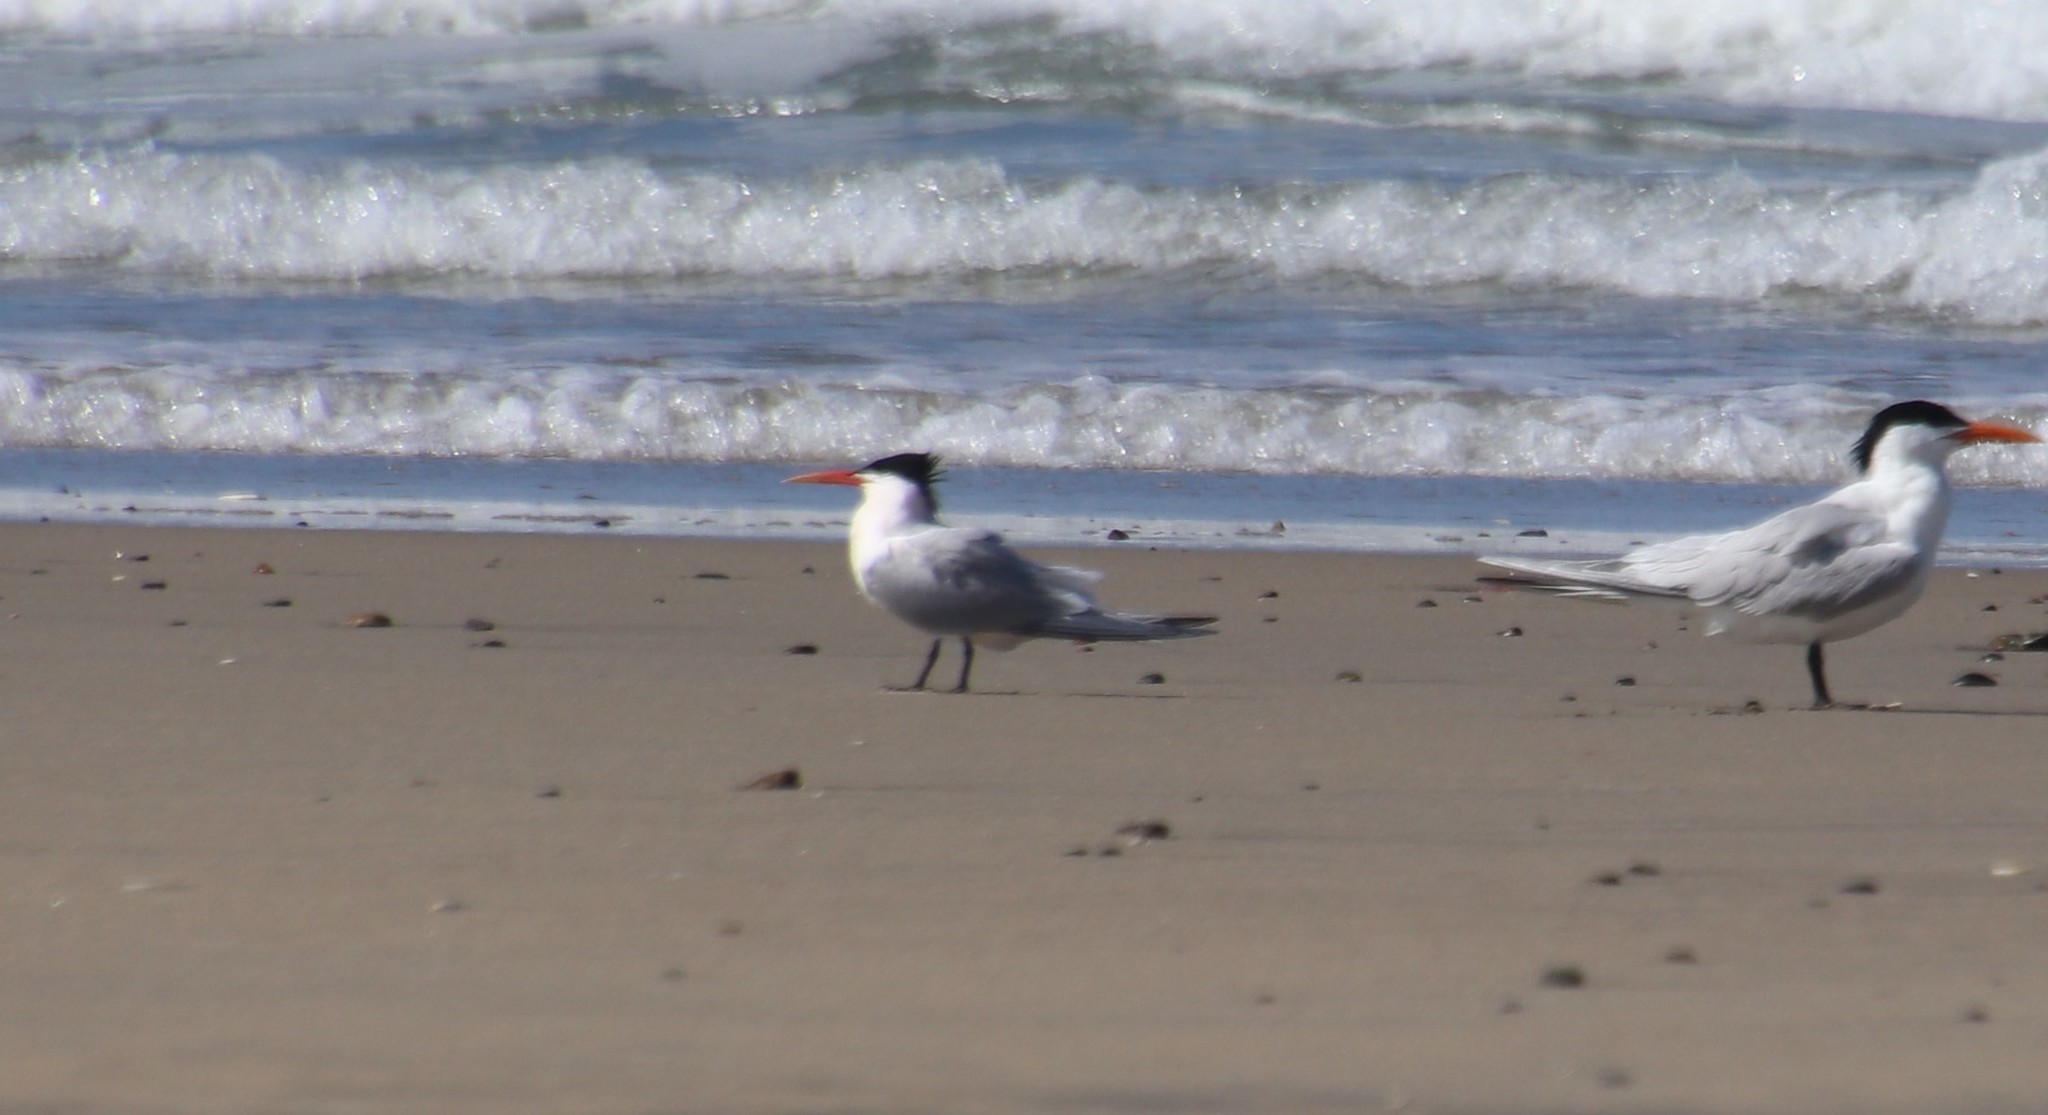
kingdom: Animalia
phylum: Chordata
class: Aves
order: Charadriiformes
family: Laridae
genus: Thalasseus
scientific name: Thalasseus elegans
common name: Elegant tern
